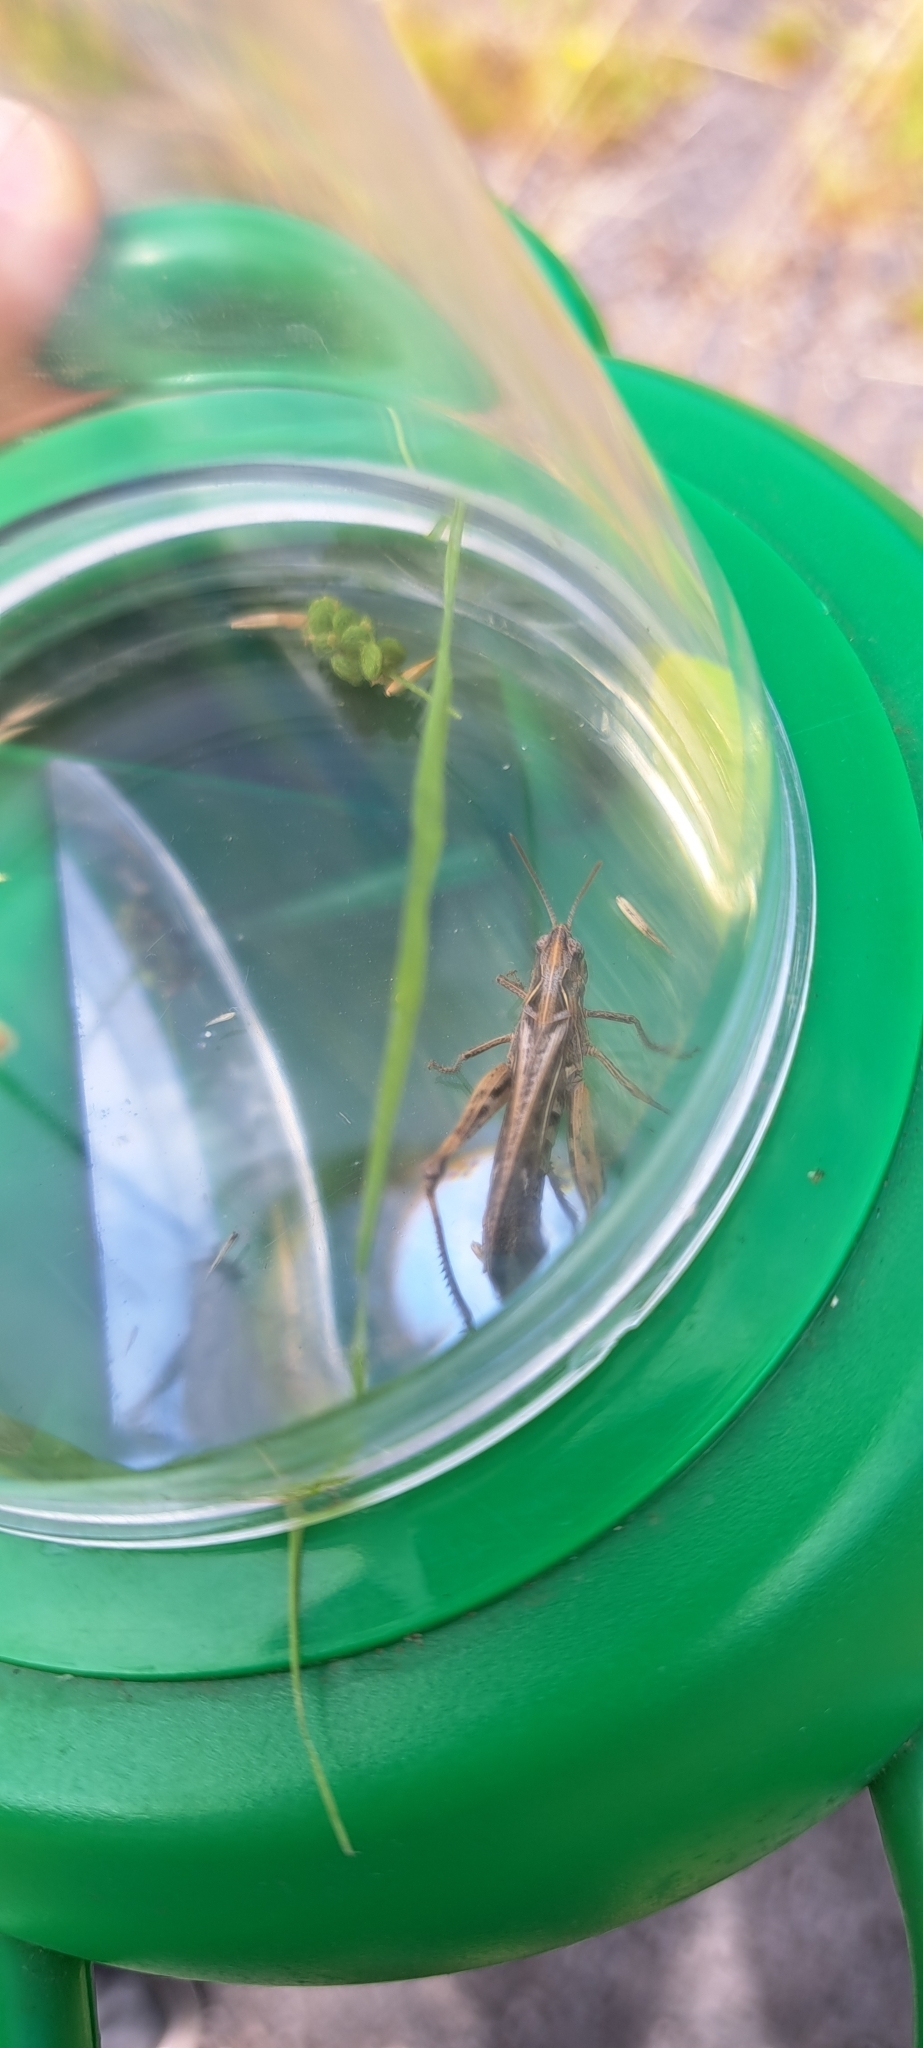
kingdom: Animalia
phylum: Arthropoda
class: Insecta
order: Orthoptera
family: Acrididae
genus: Chorthippus
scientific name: Chorthippus brunneus
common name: Field grasshopper
